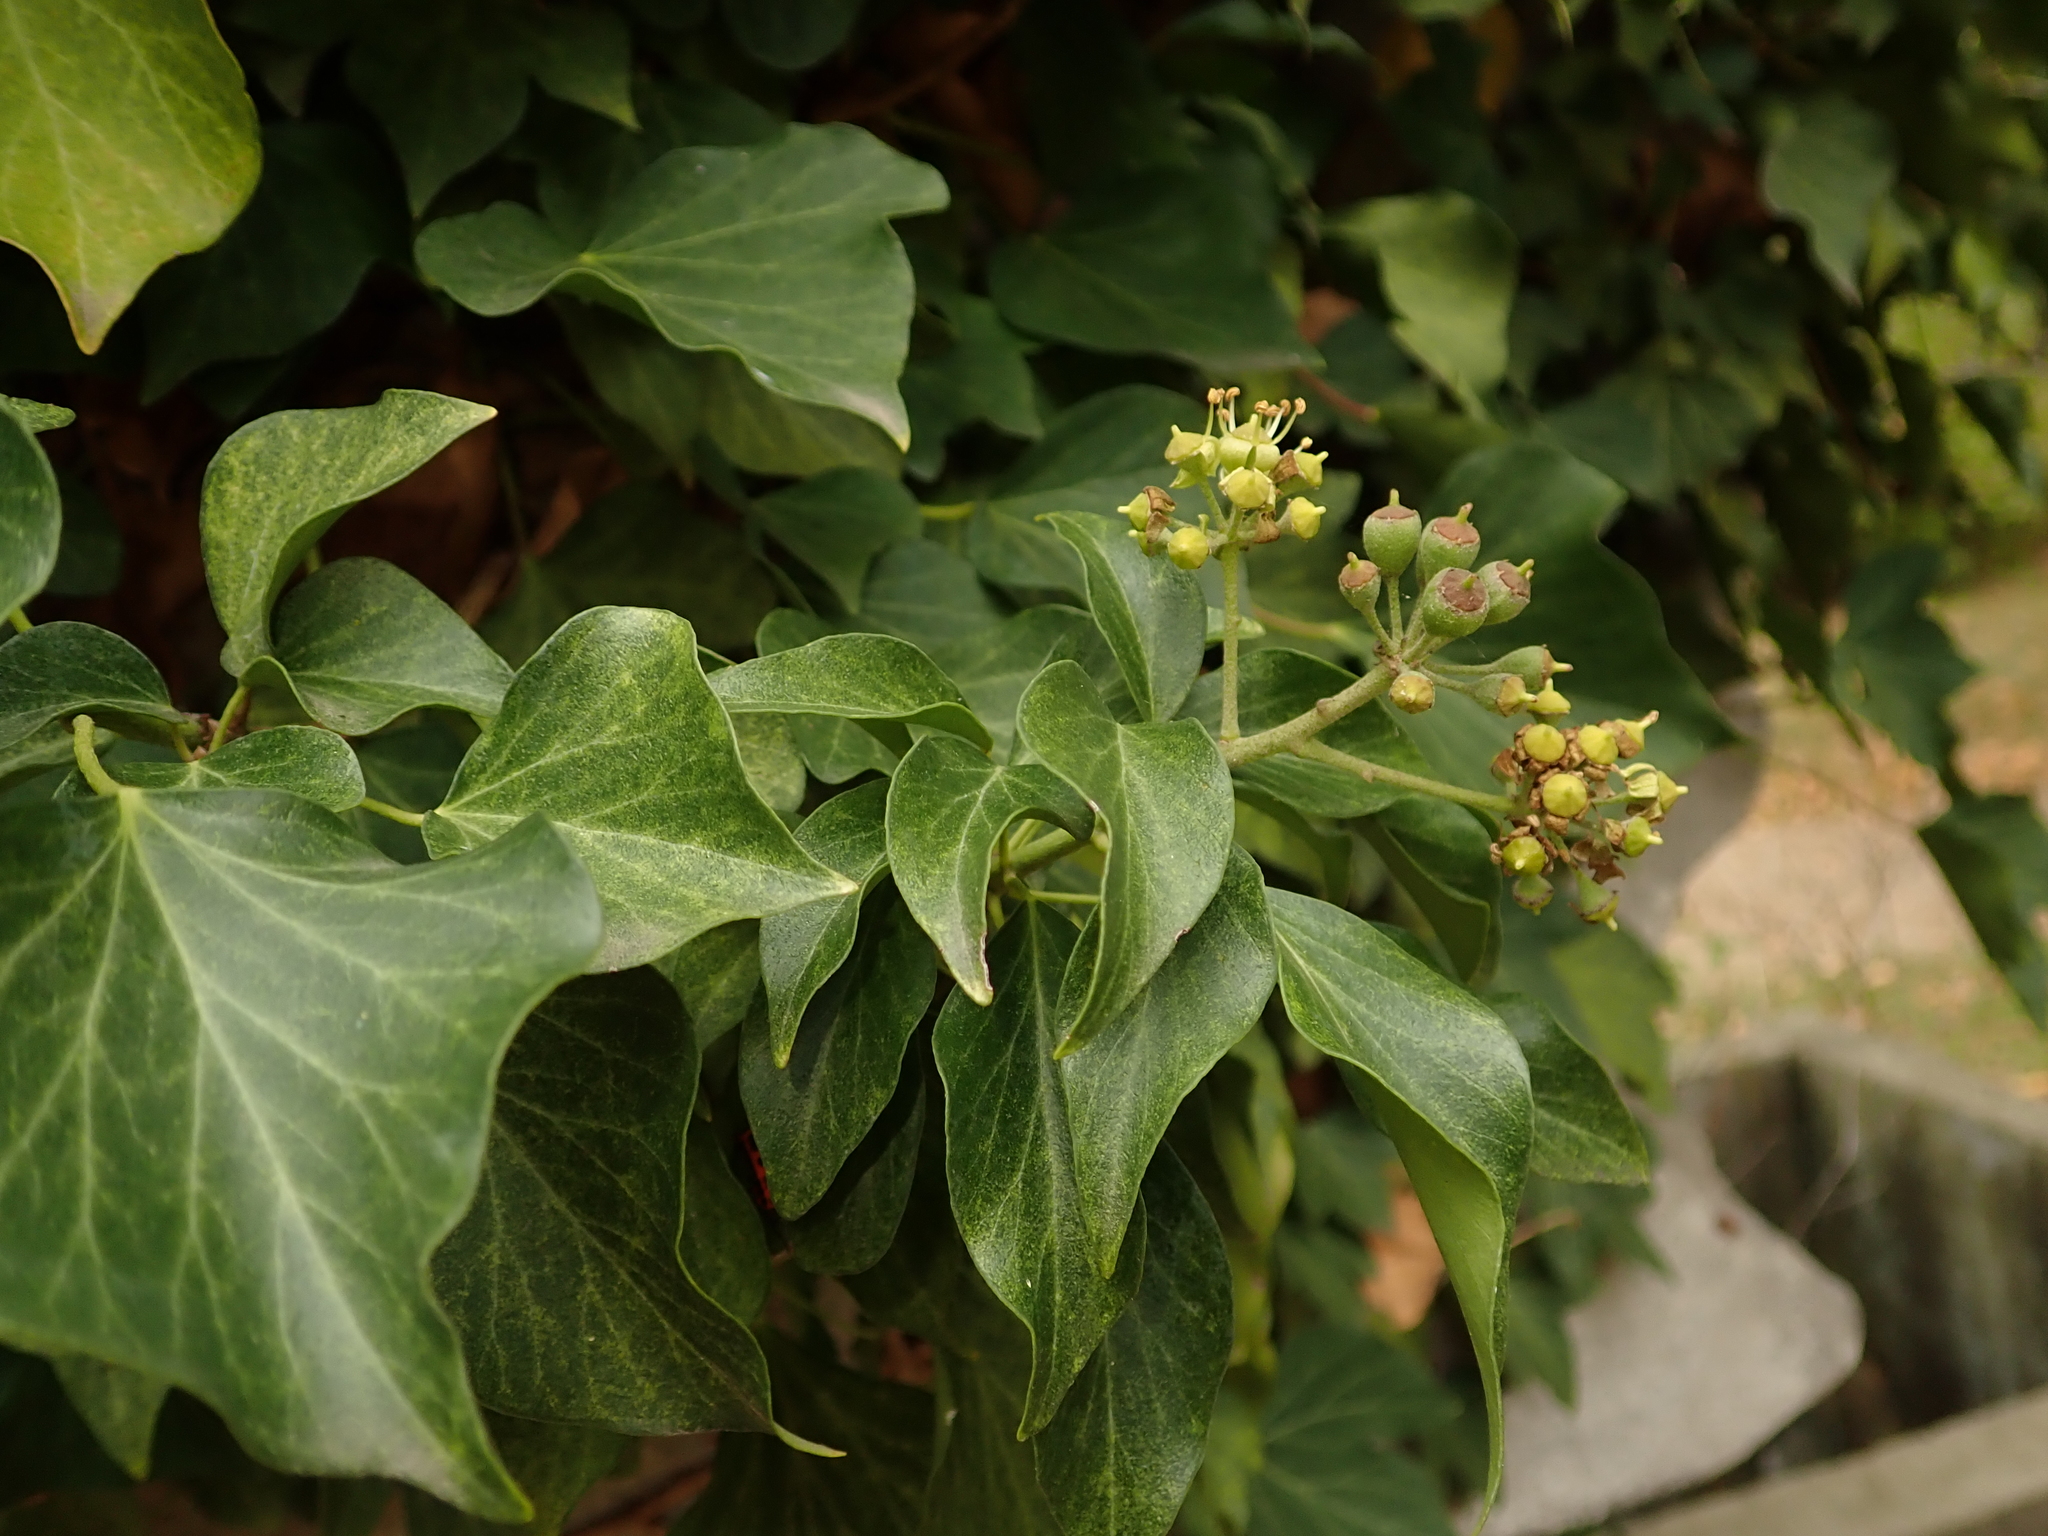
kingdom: Plantae
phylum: Tracheophyta
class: Magnoliopsida
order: Apiales
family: Araliaceae
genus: Hedera
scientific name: Hedera helix
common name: Ivy
